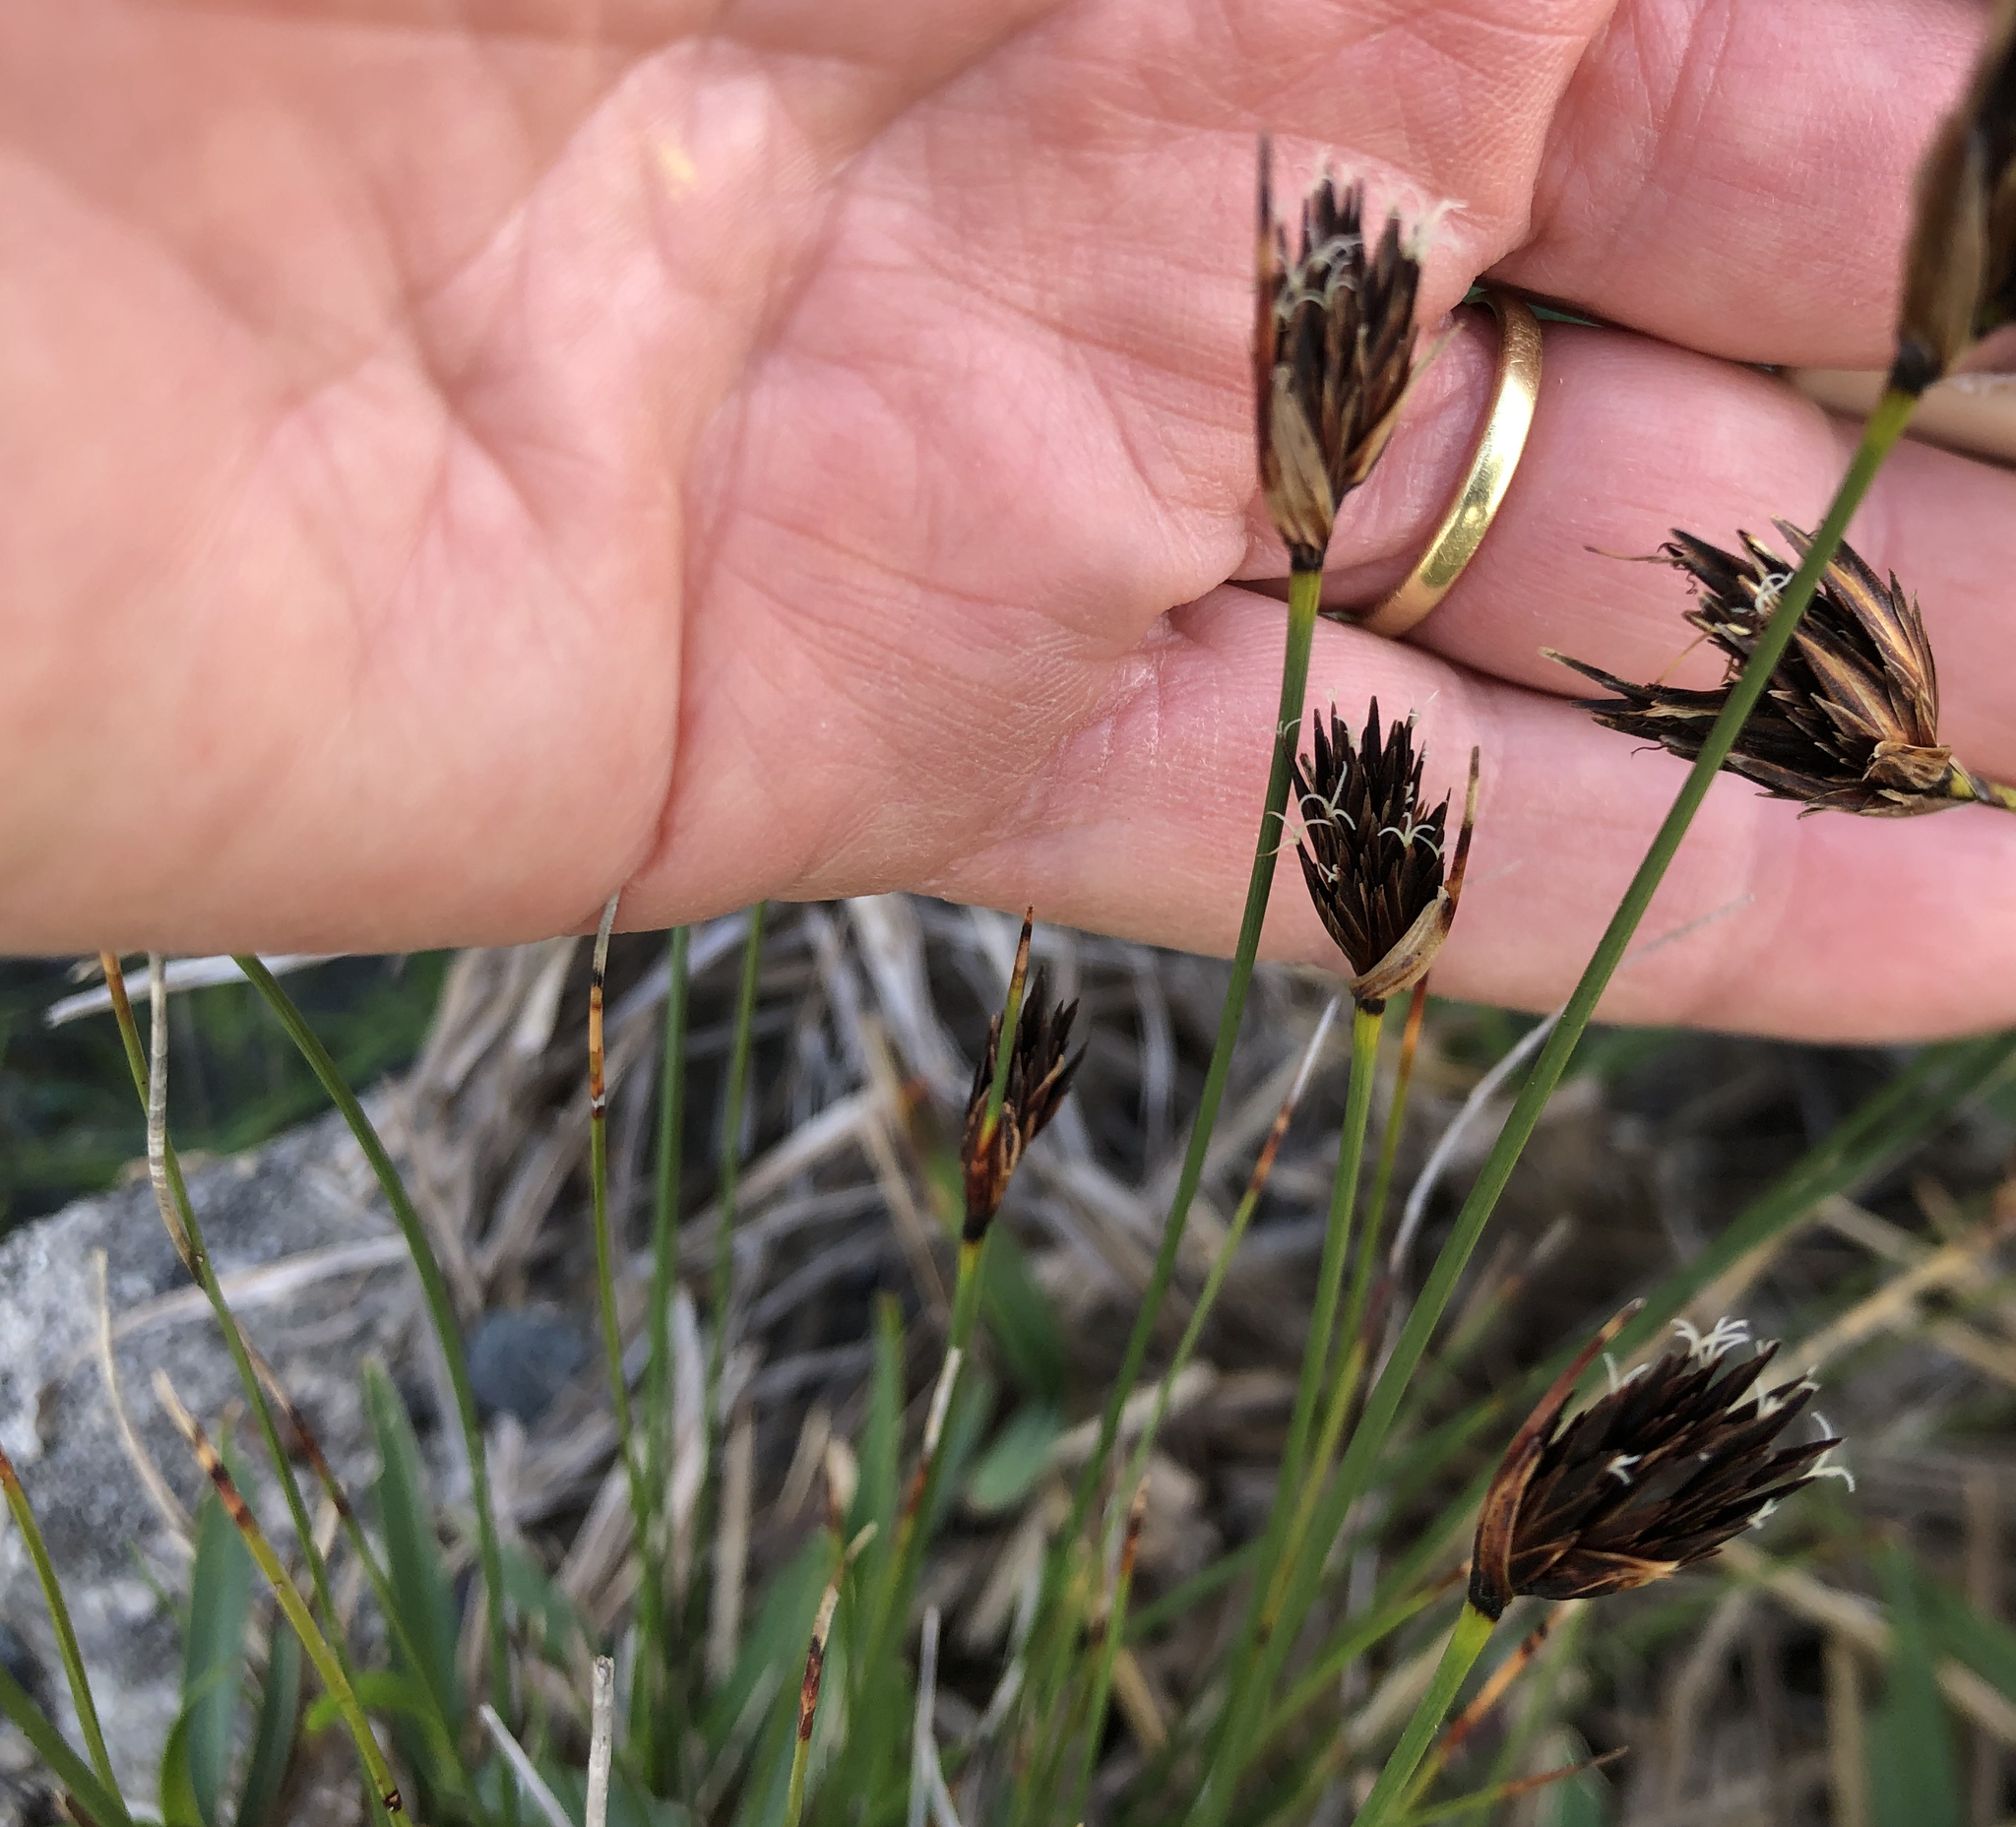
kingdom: Plantae
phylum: Tracheophyta
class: Liliopsida
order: Poales
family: Cyperaceae
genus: Schoenus
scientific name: Schoenus nigricans
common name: Black bog-rush
